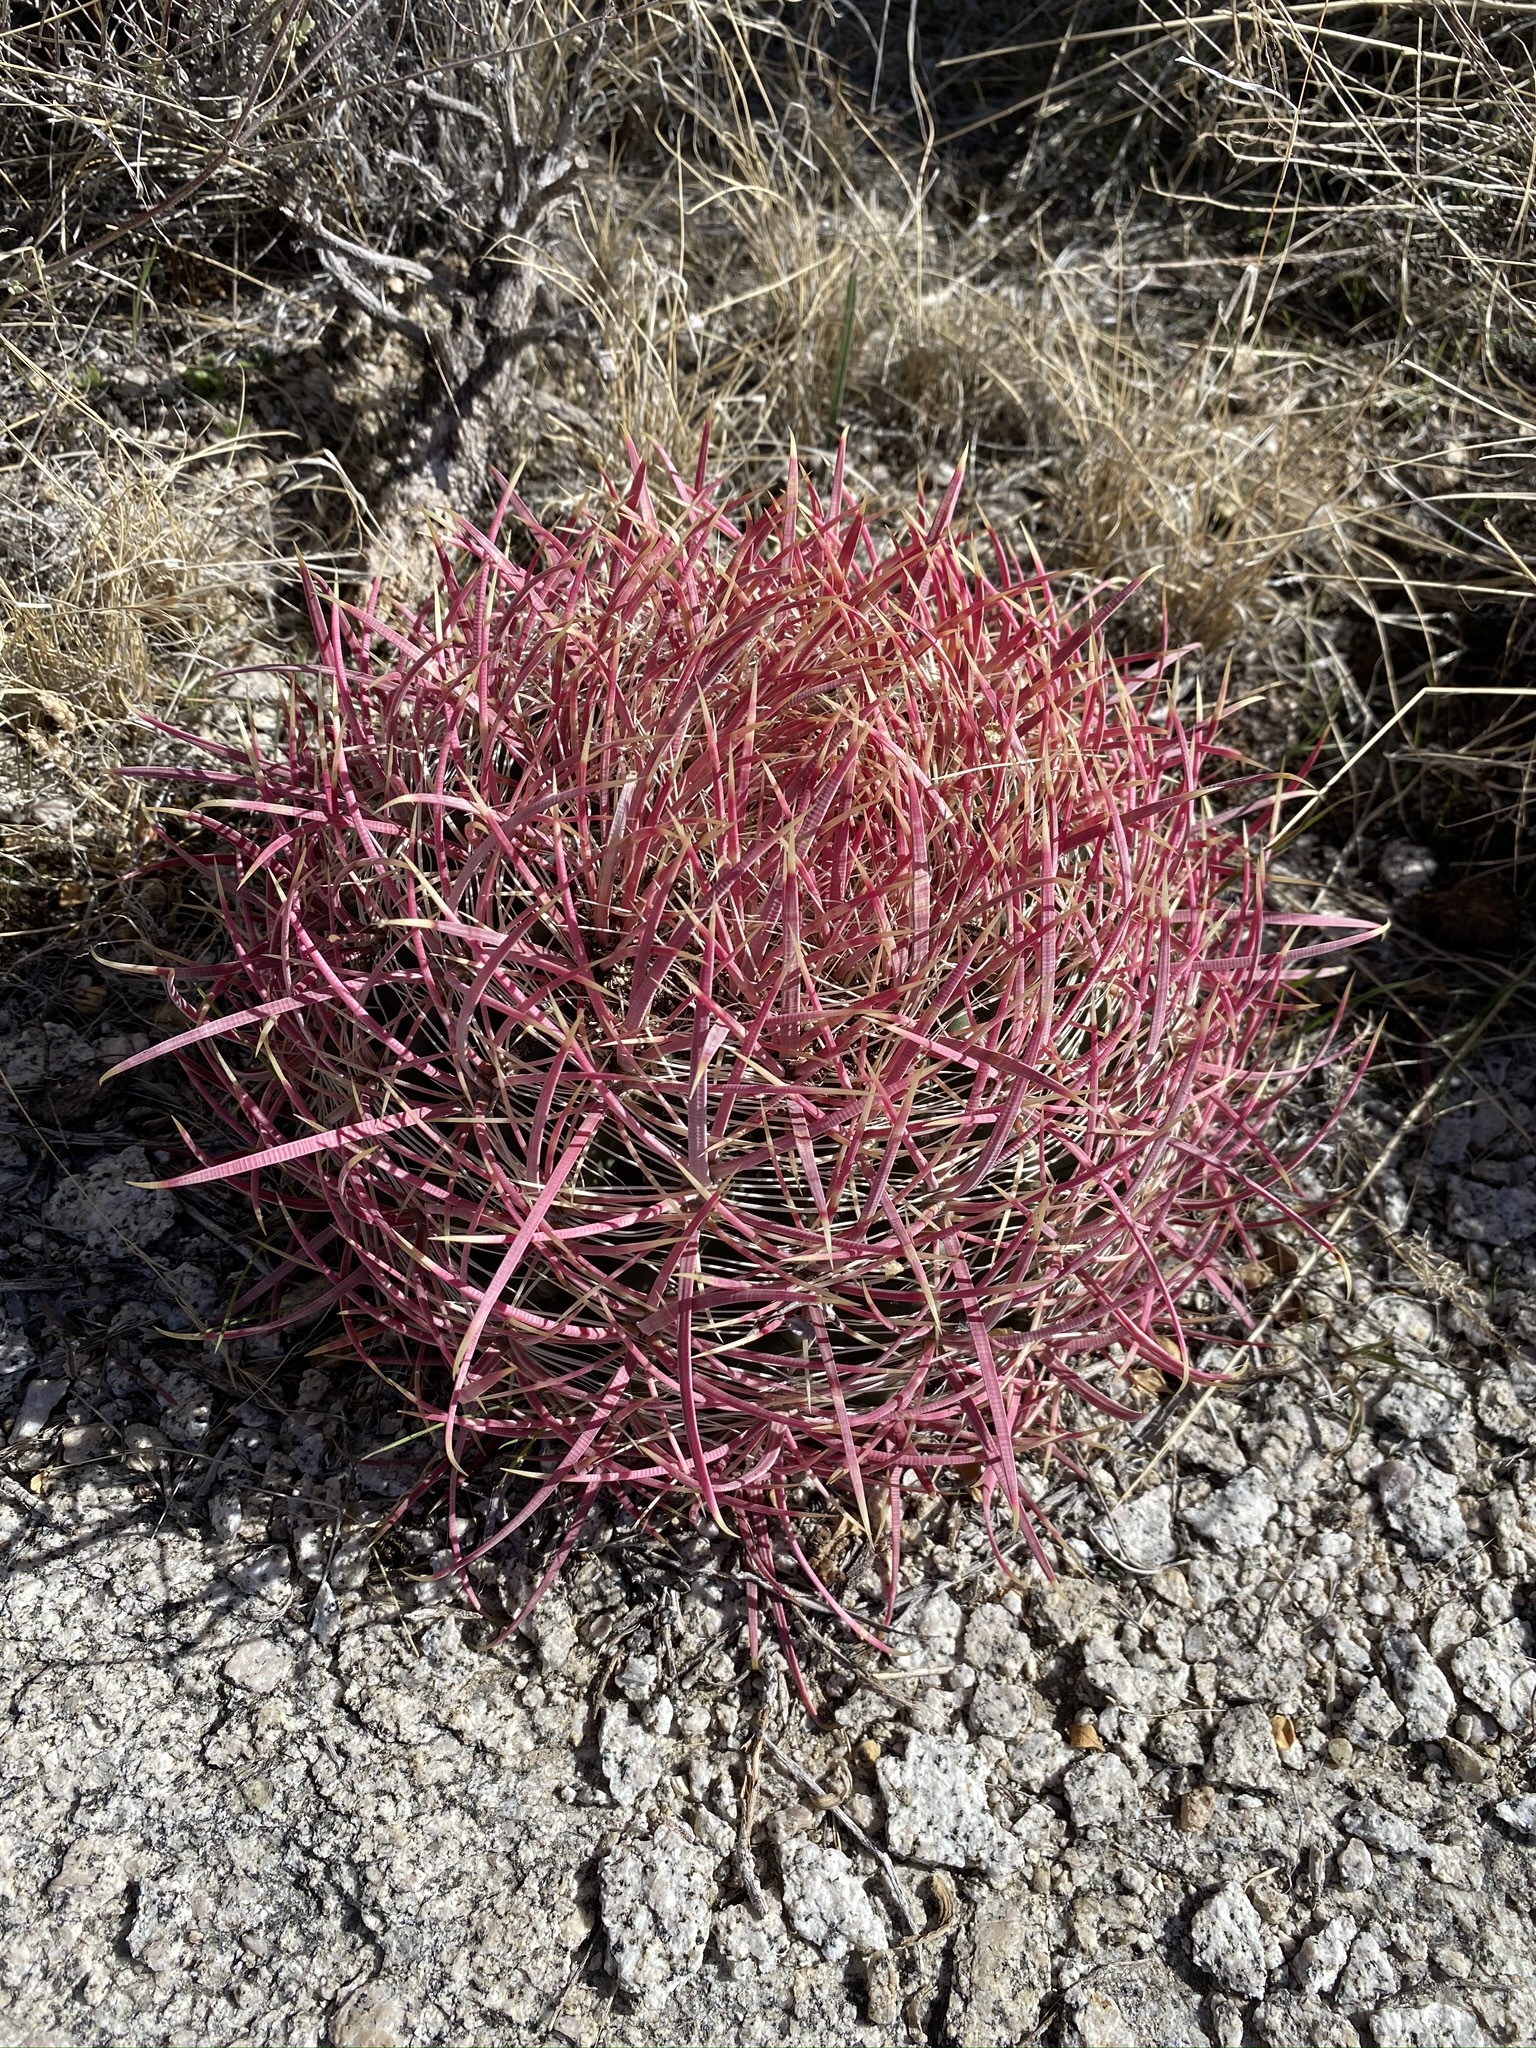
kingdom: Plantae
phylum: Tracheophyta
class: Magnoliopsida
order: Caryophyllales
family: Cactaceae
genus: Ferocactus
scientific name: Ferocactus cylindraceus
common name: California barrel cactus
